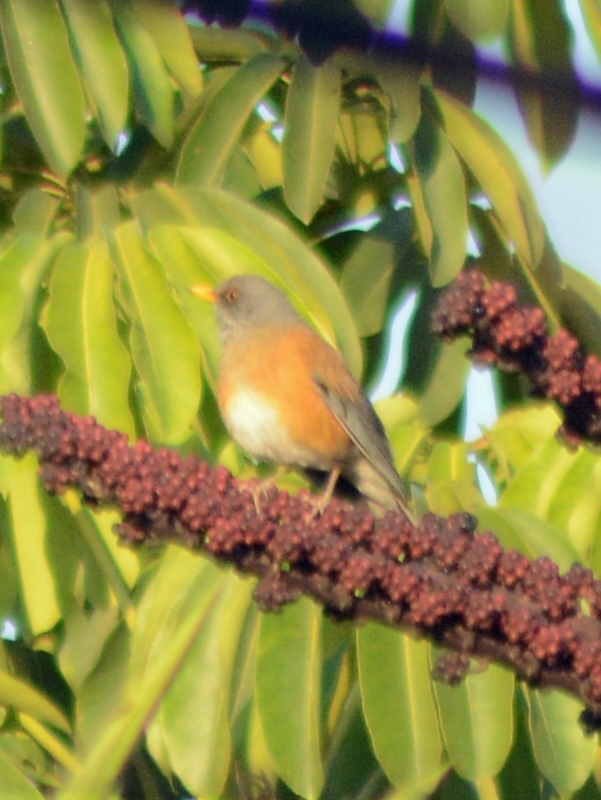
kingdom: Animalia
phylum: Chordata
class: Aves
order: Passeriformes
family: Turdidae
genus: Turdus
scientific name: Turdus rufopalliatus
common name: Rufous-backed robin
